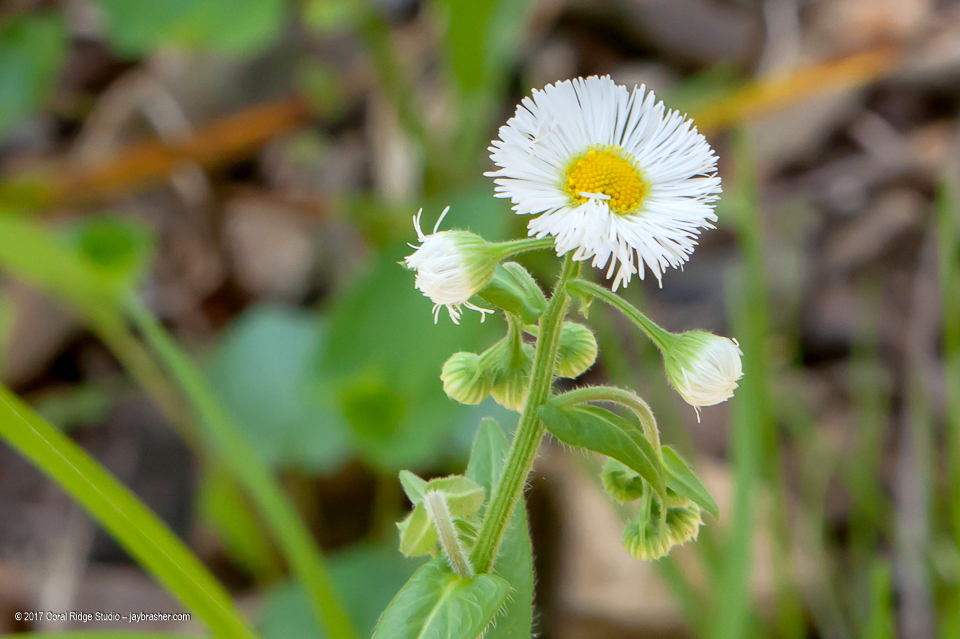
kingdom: Plantae
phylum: Tracheophyta
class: Magnoliopsida
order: Asterales
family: Asteraceae
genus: Erigeron
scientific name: Erigeron philadelphicus
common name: Robin's-plantain
